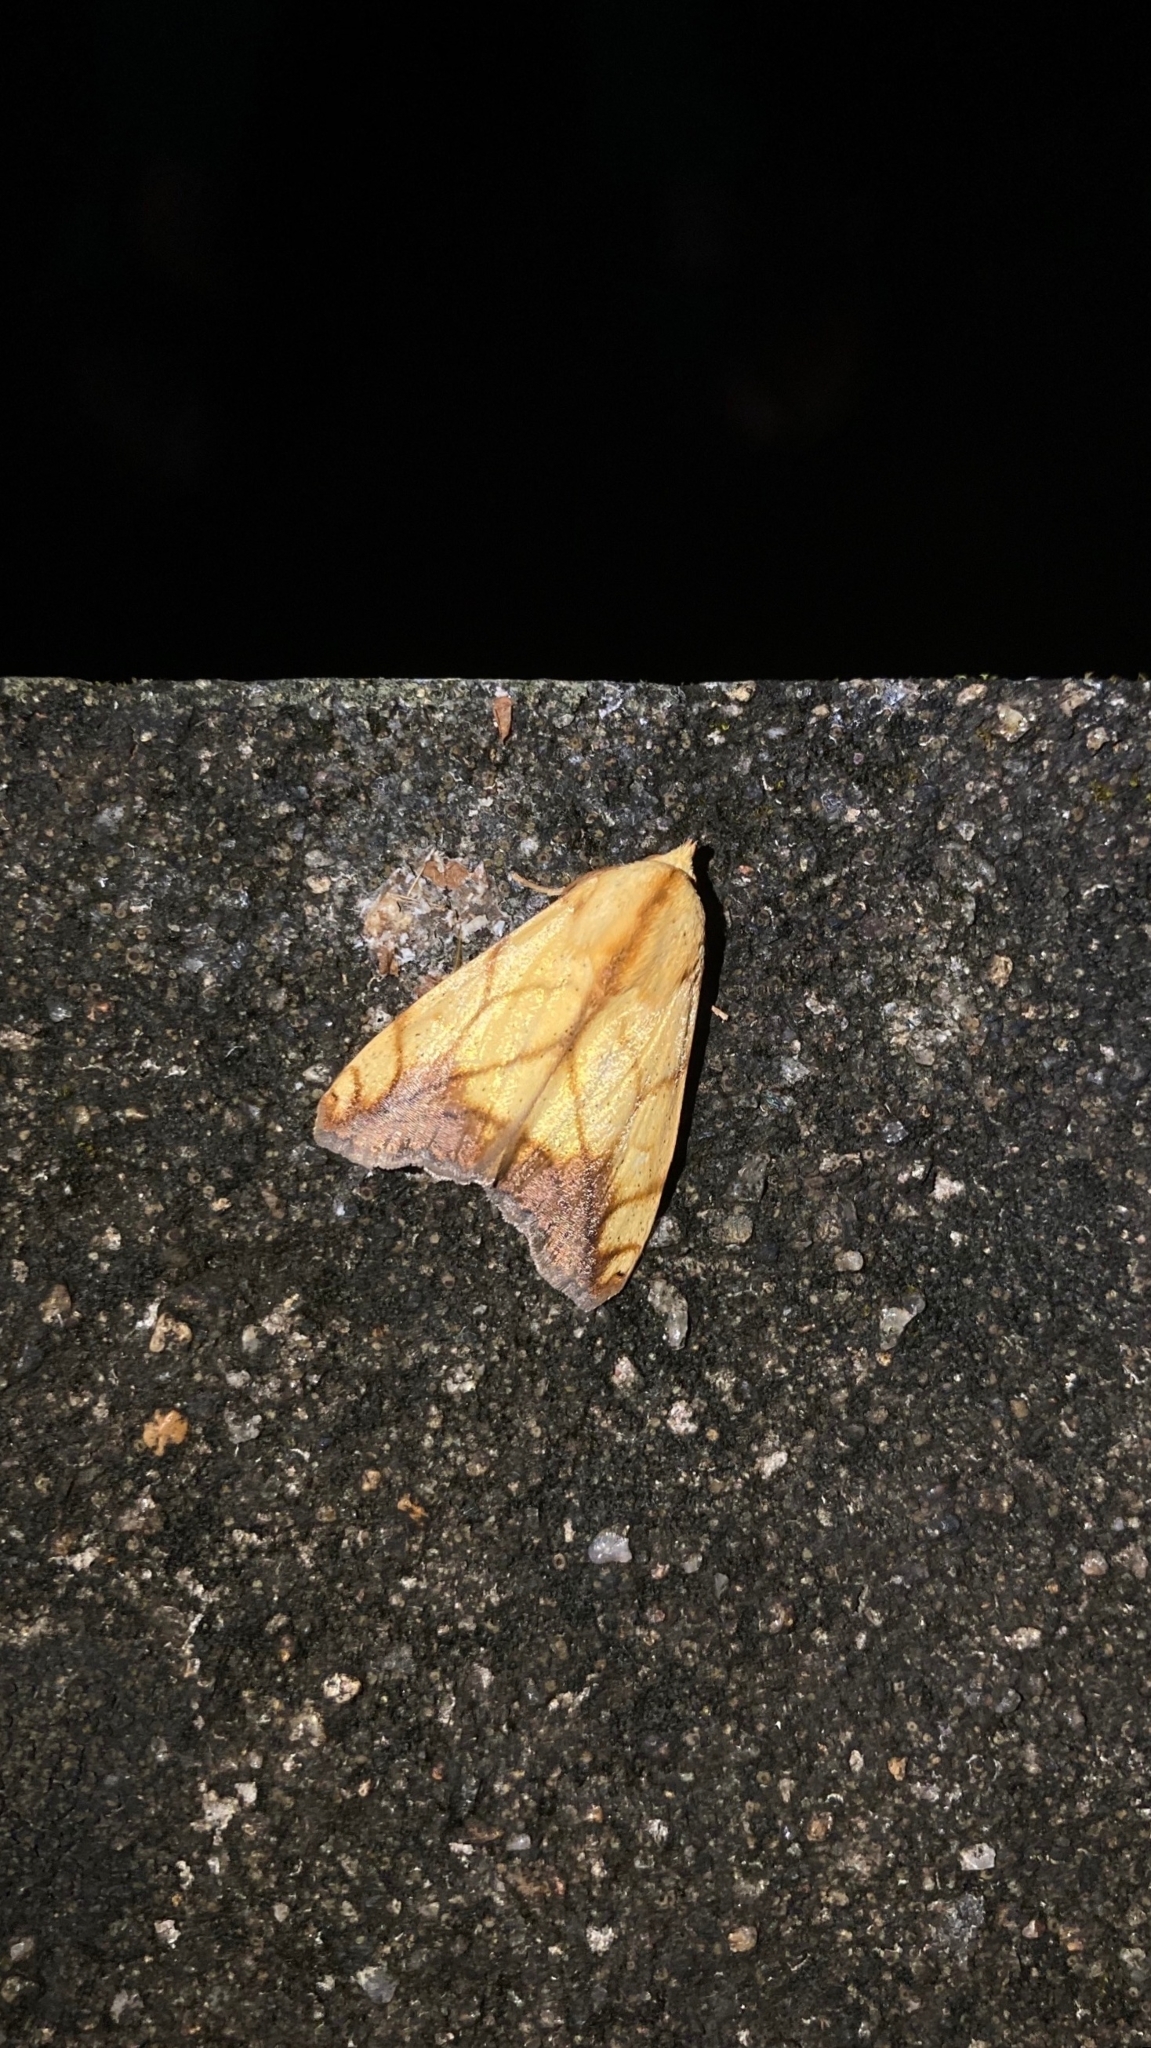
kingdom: Animalia
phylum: Arthropoda
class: Insecta
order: Lepidoptera
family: Nolidae
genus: Xanthodes
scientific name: Xanthodes transversa
